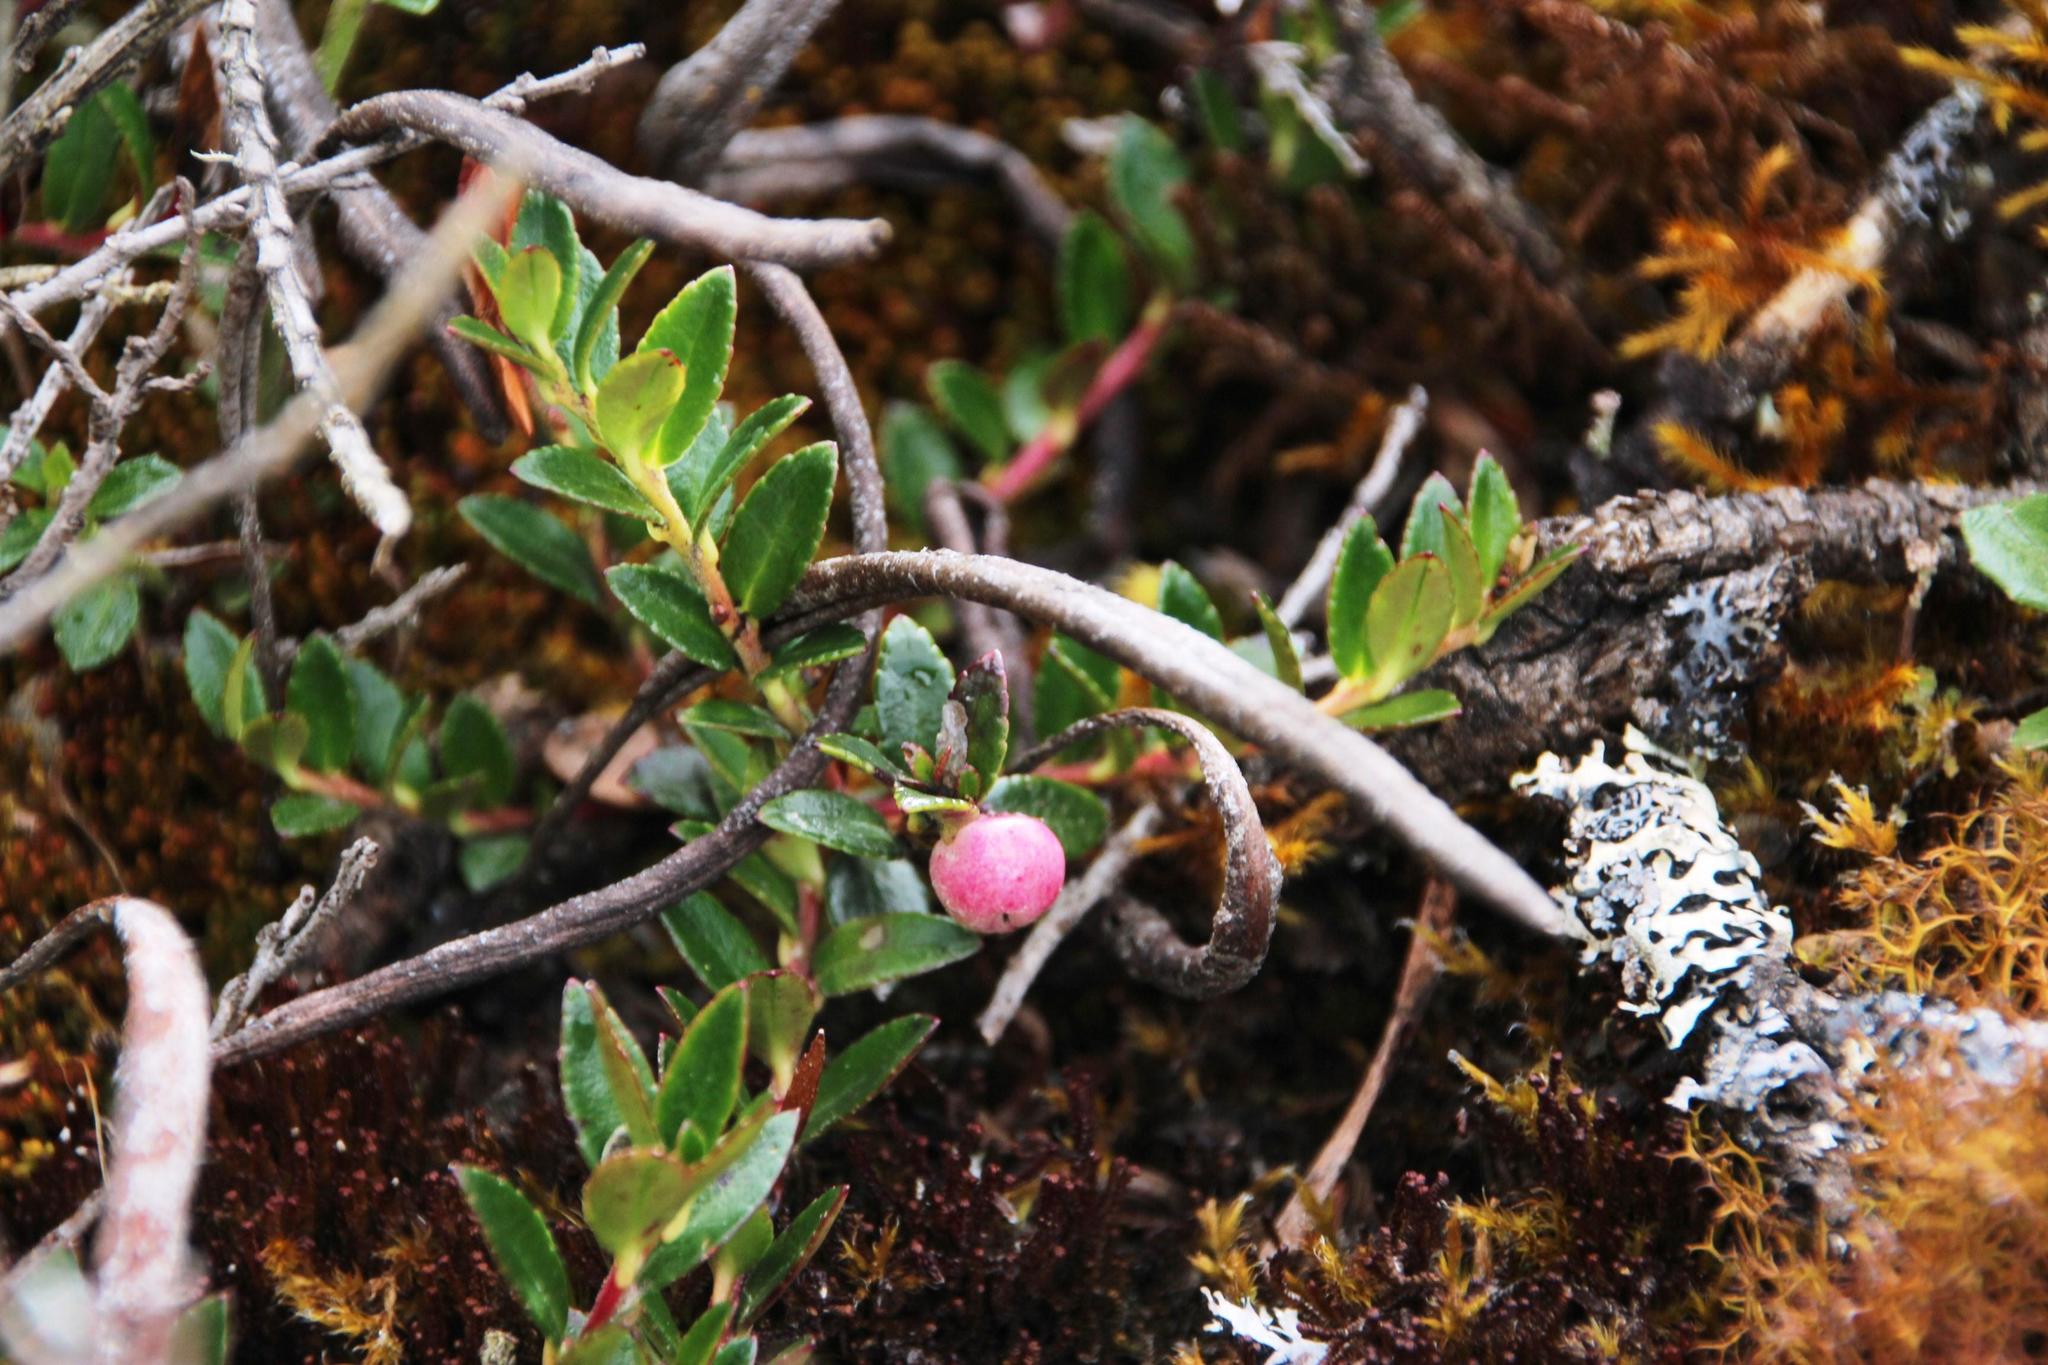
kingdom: Plantae
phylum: Tracheophyta
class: Magnoliopsida
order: Ericales
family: Ericaceae
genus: Gaultheria
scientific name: Gaultheria myrsinoides
